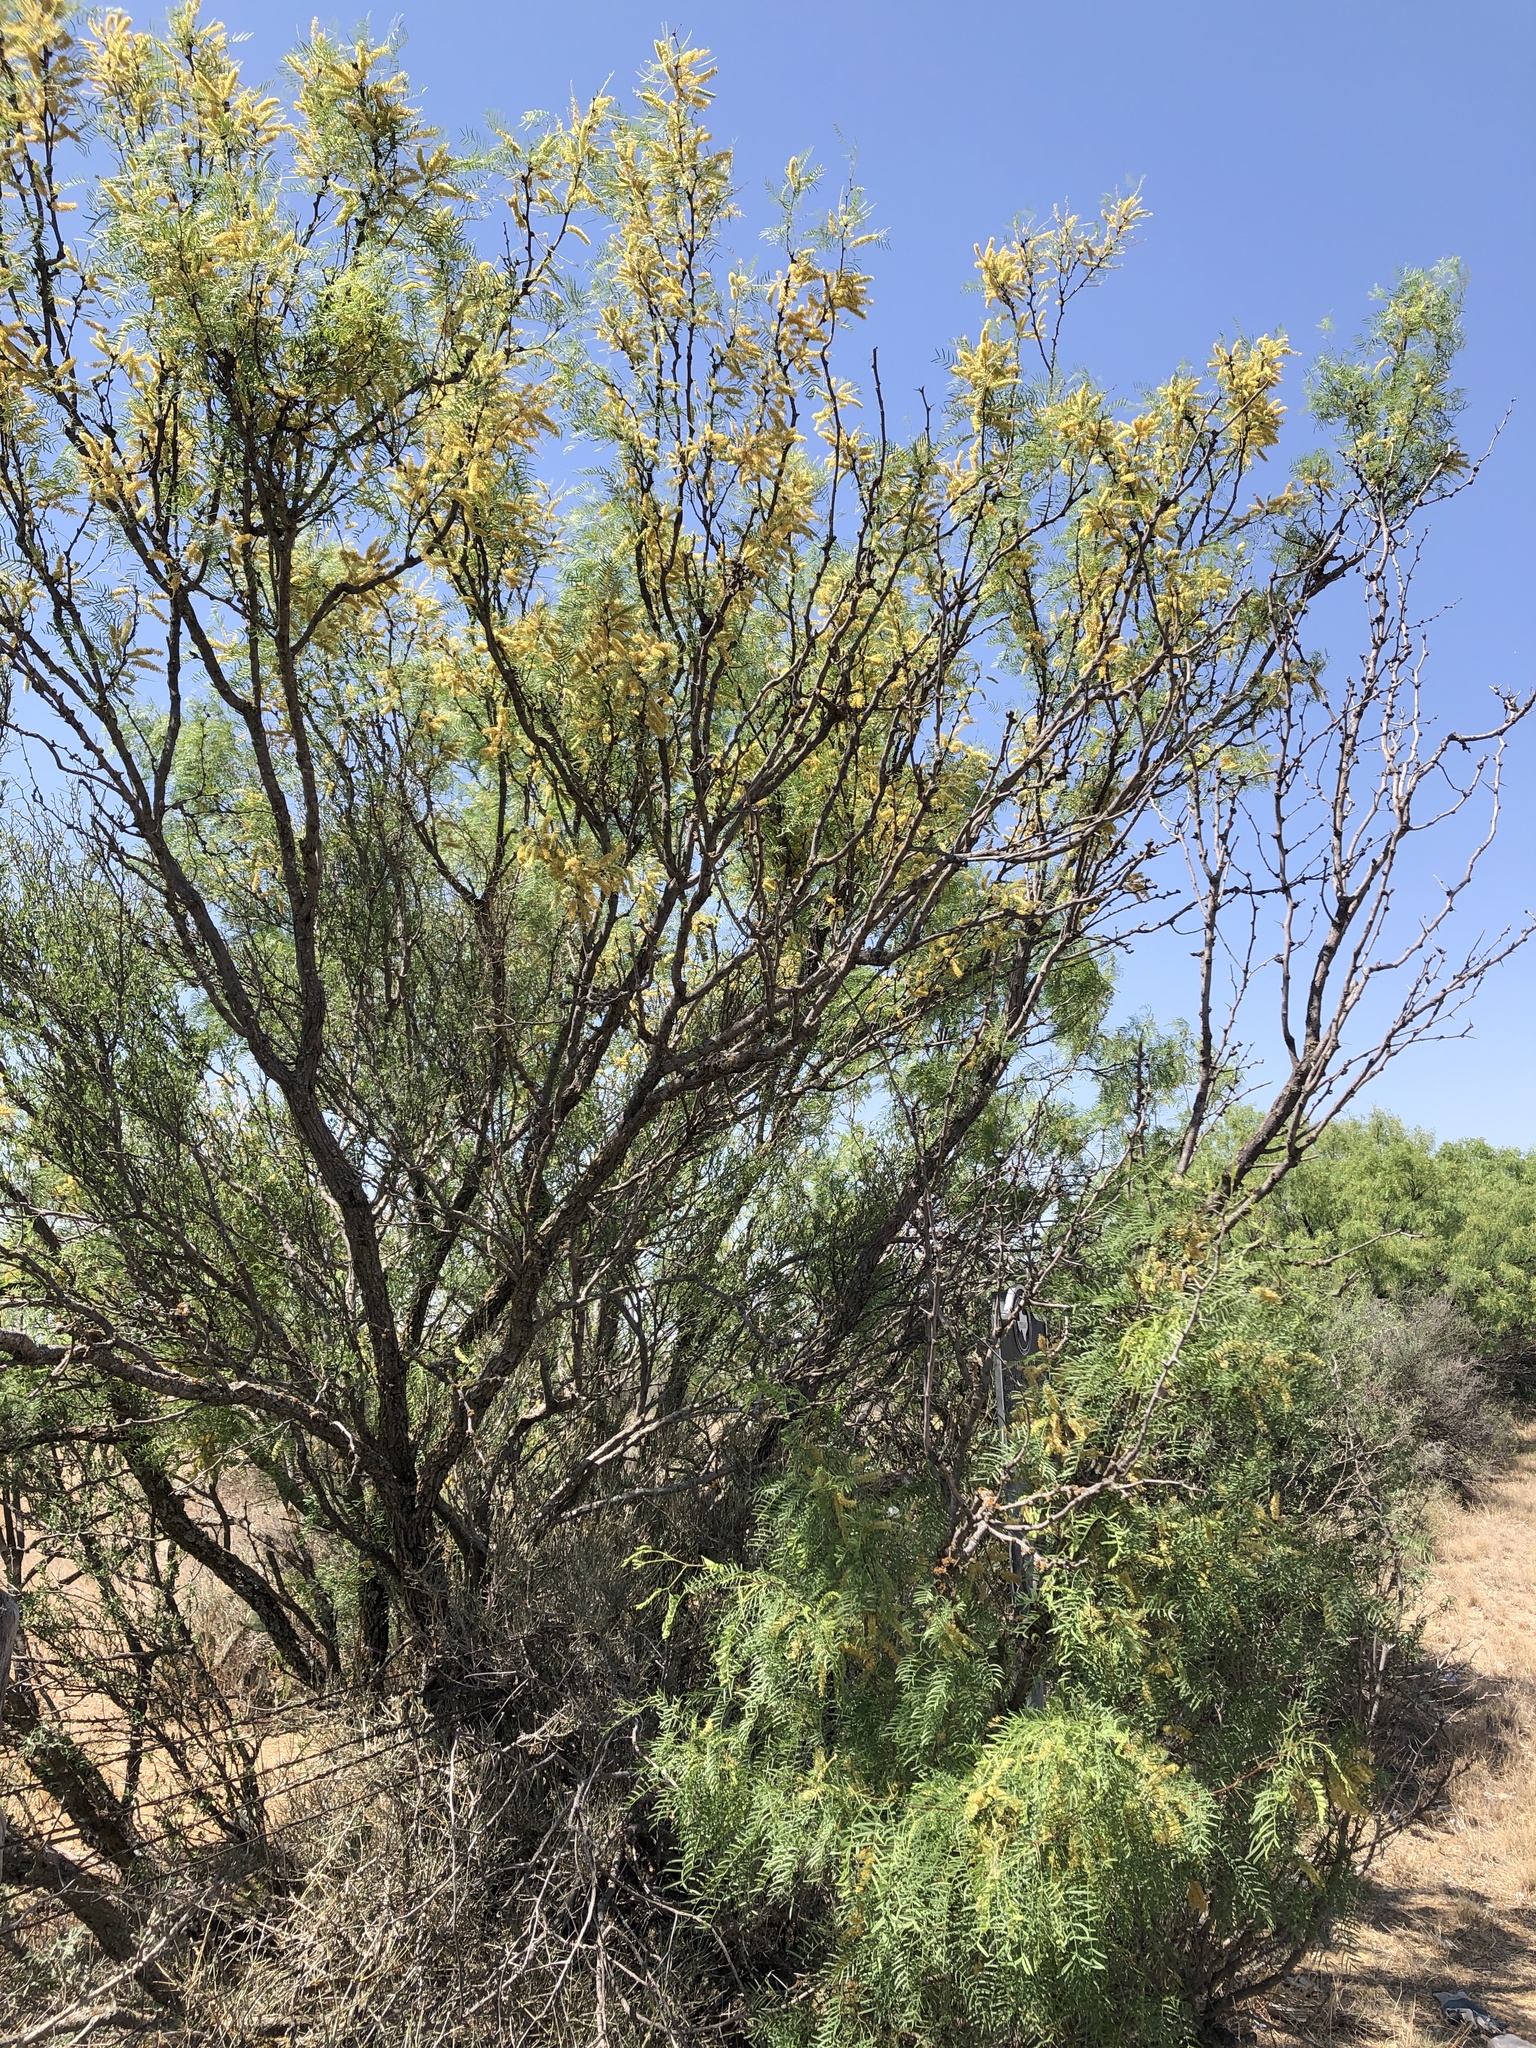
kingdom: Plantae
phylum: Tracheophyta
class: Magnoliopsida
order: Fabales
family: Fabaceae
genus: Prosopis
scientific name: Prosopis glandulosa
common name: Honey mesquite
